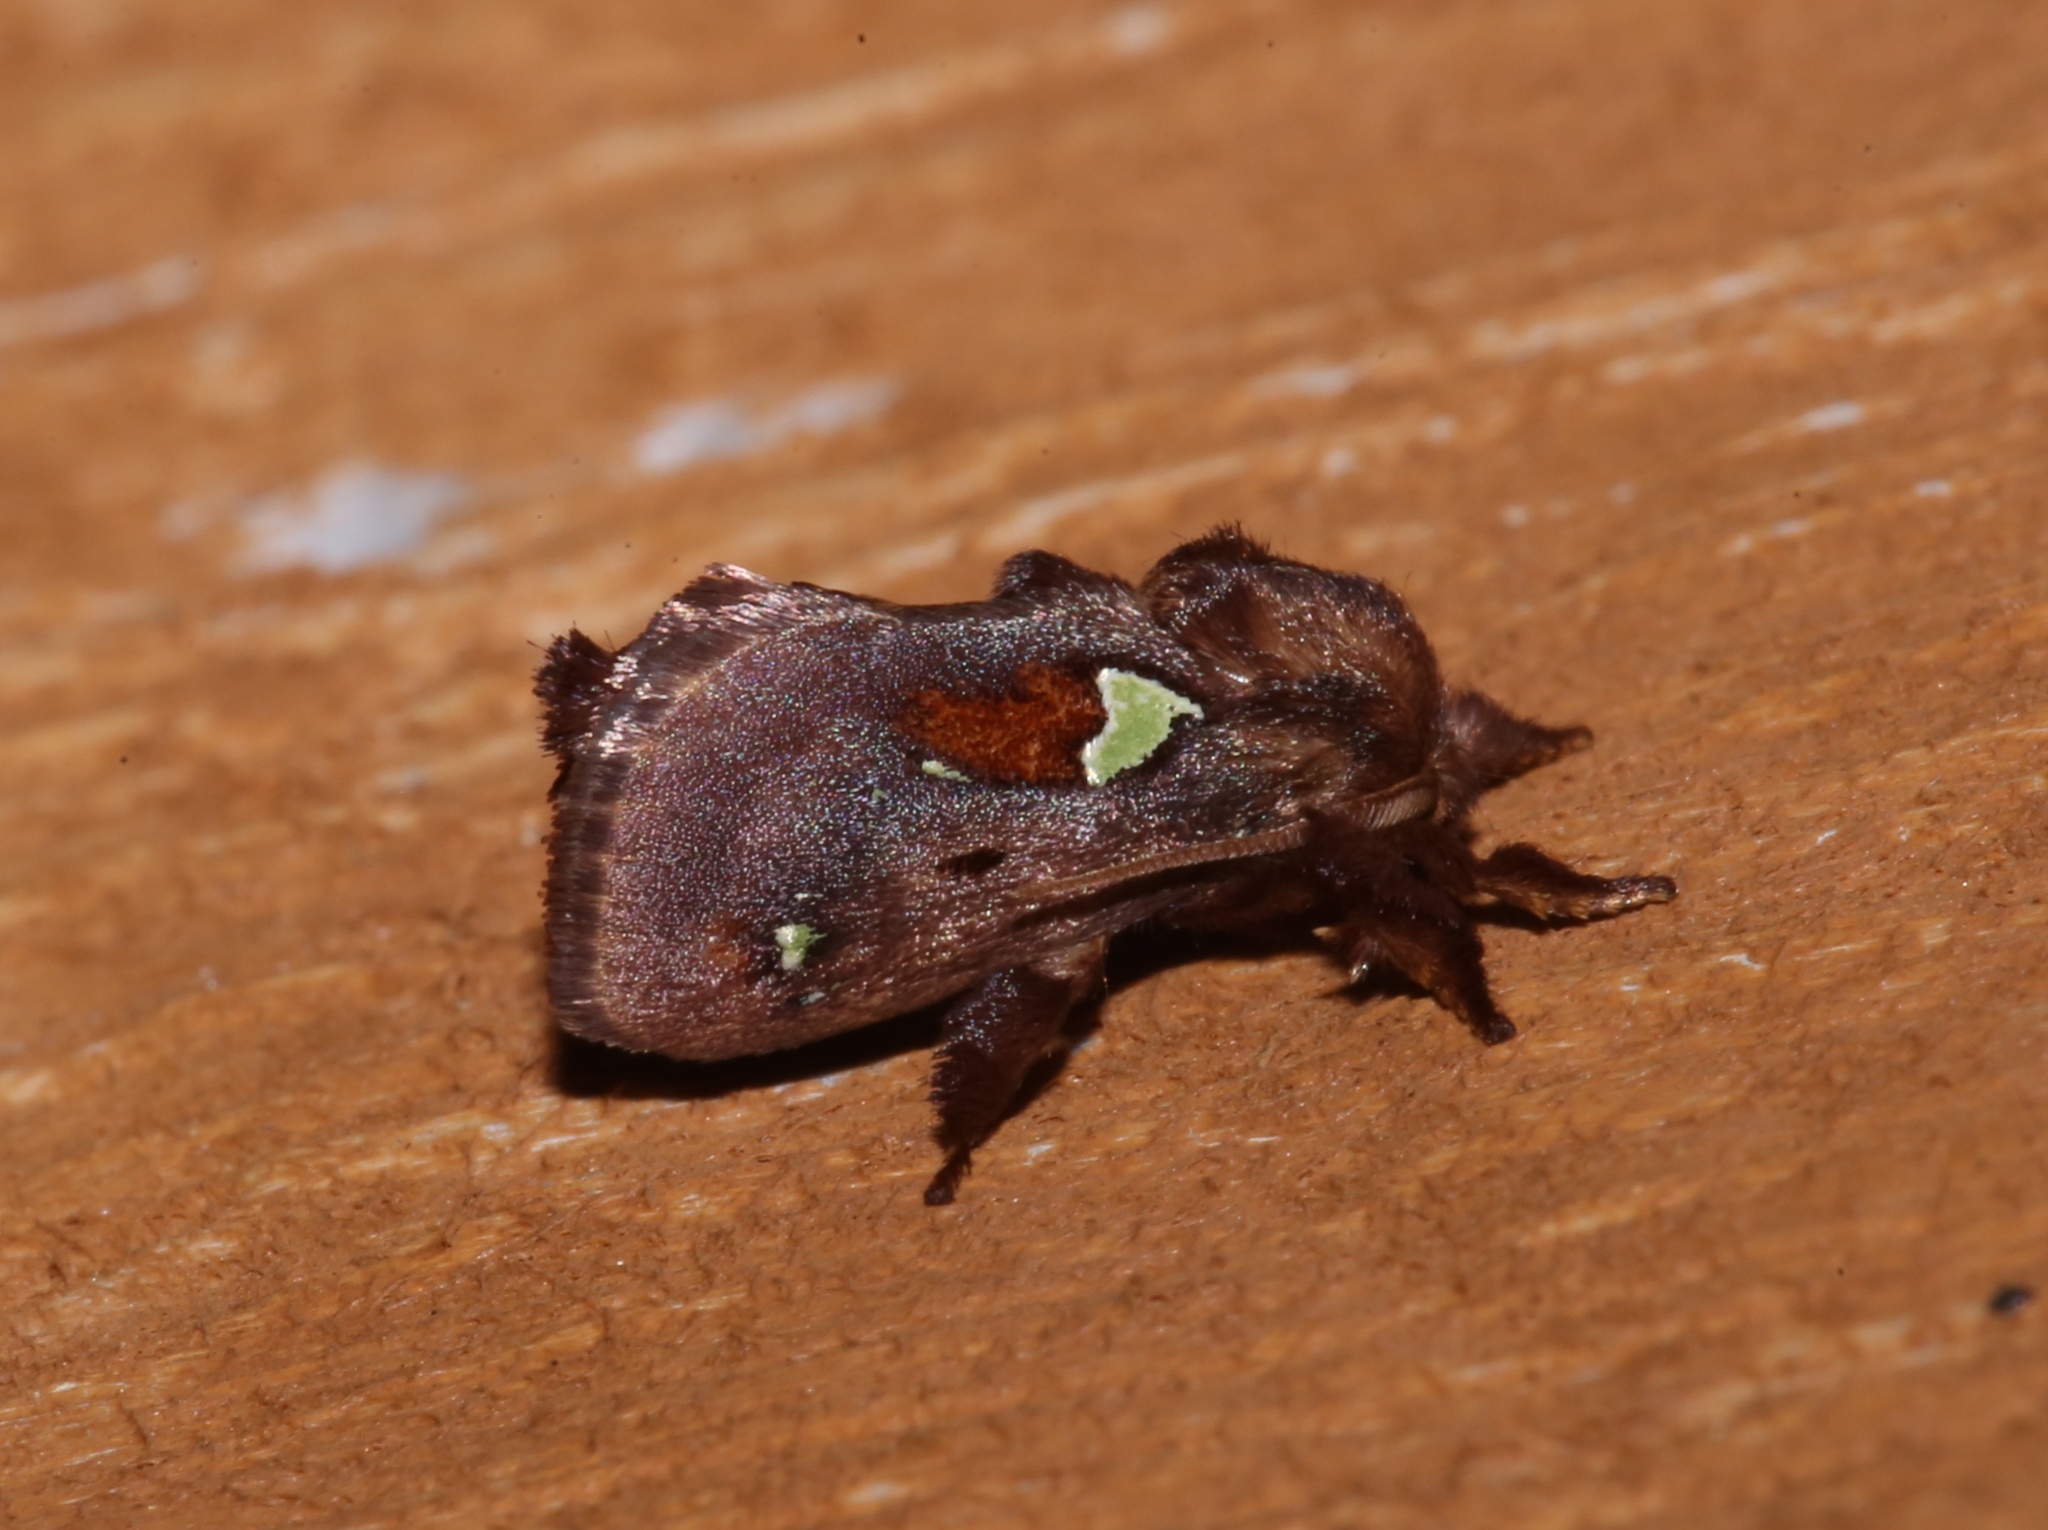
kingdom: Animalia
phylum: Arthropoda
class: Insecta
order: Lepidoptera
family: Limacodidae
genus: Euclea
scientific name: Euclea delphinii
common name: Spiny oak-slug moth
